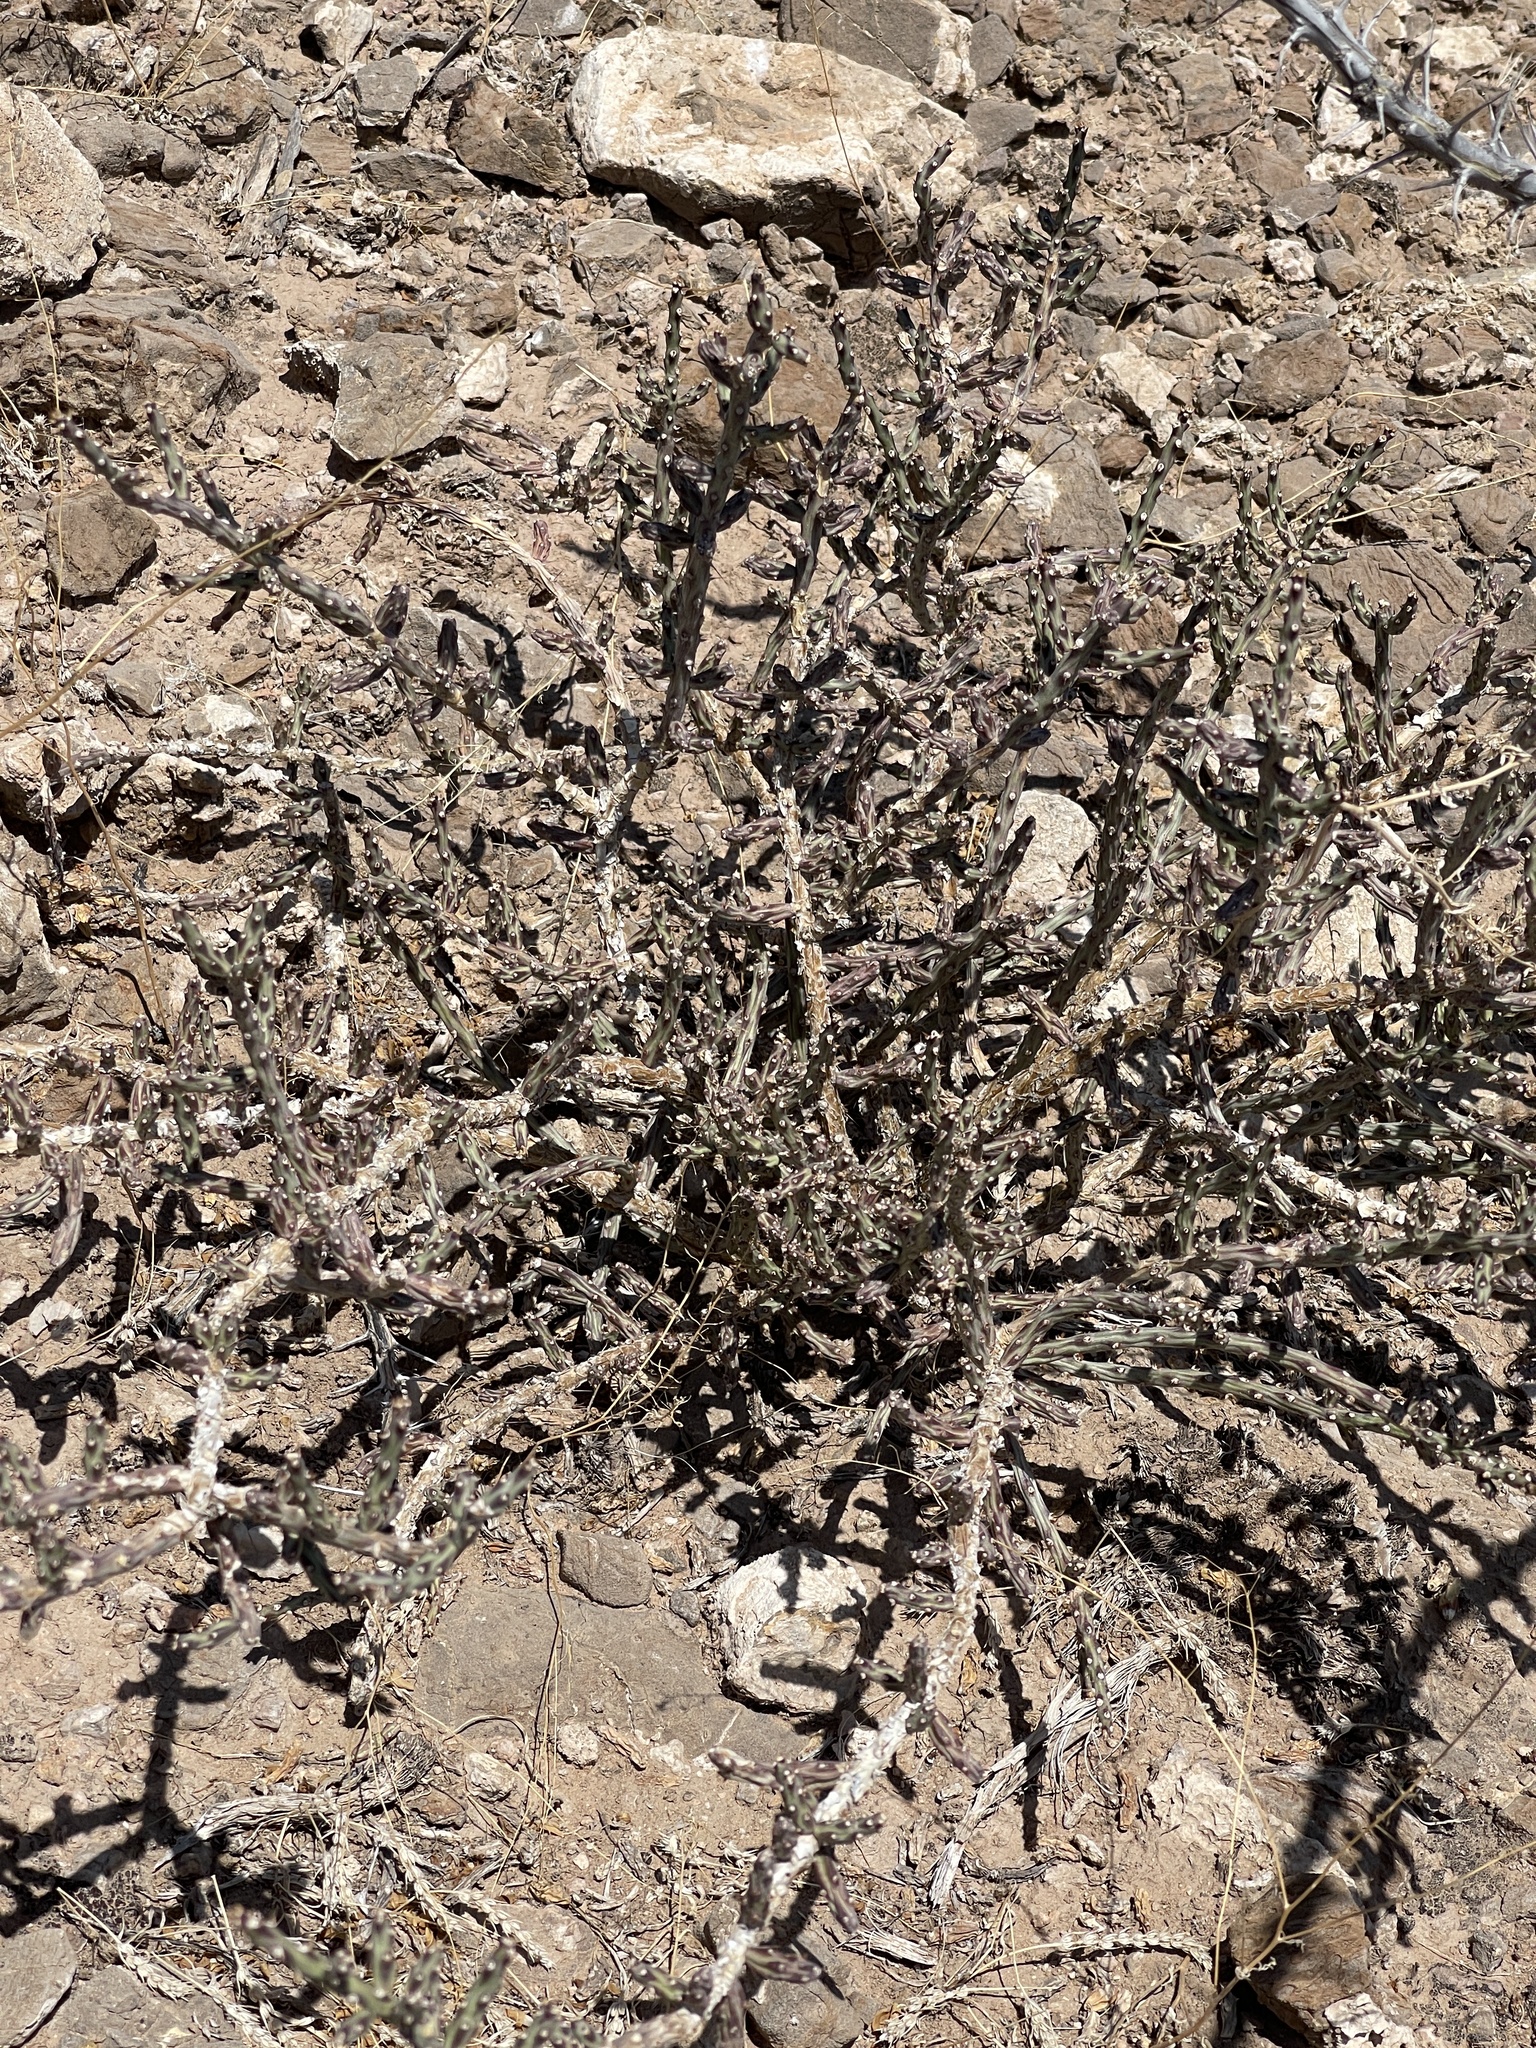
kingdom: Plantae
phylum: Tracheophyta
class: Magnoliopsida
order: Caryophyllales
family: Cactaceae
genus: Cylindropuntia
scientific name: Cylindropuntia leptocaulis
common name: Christmas cactus
